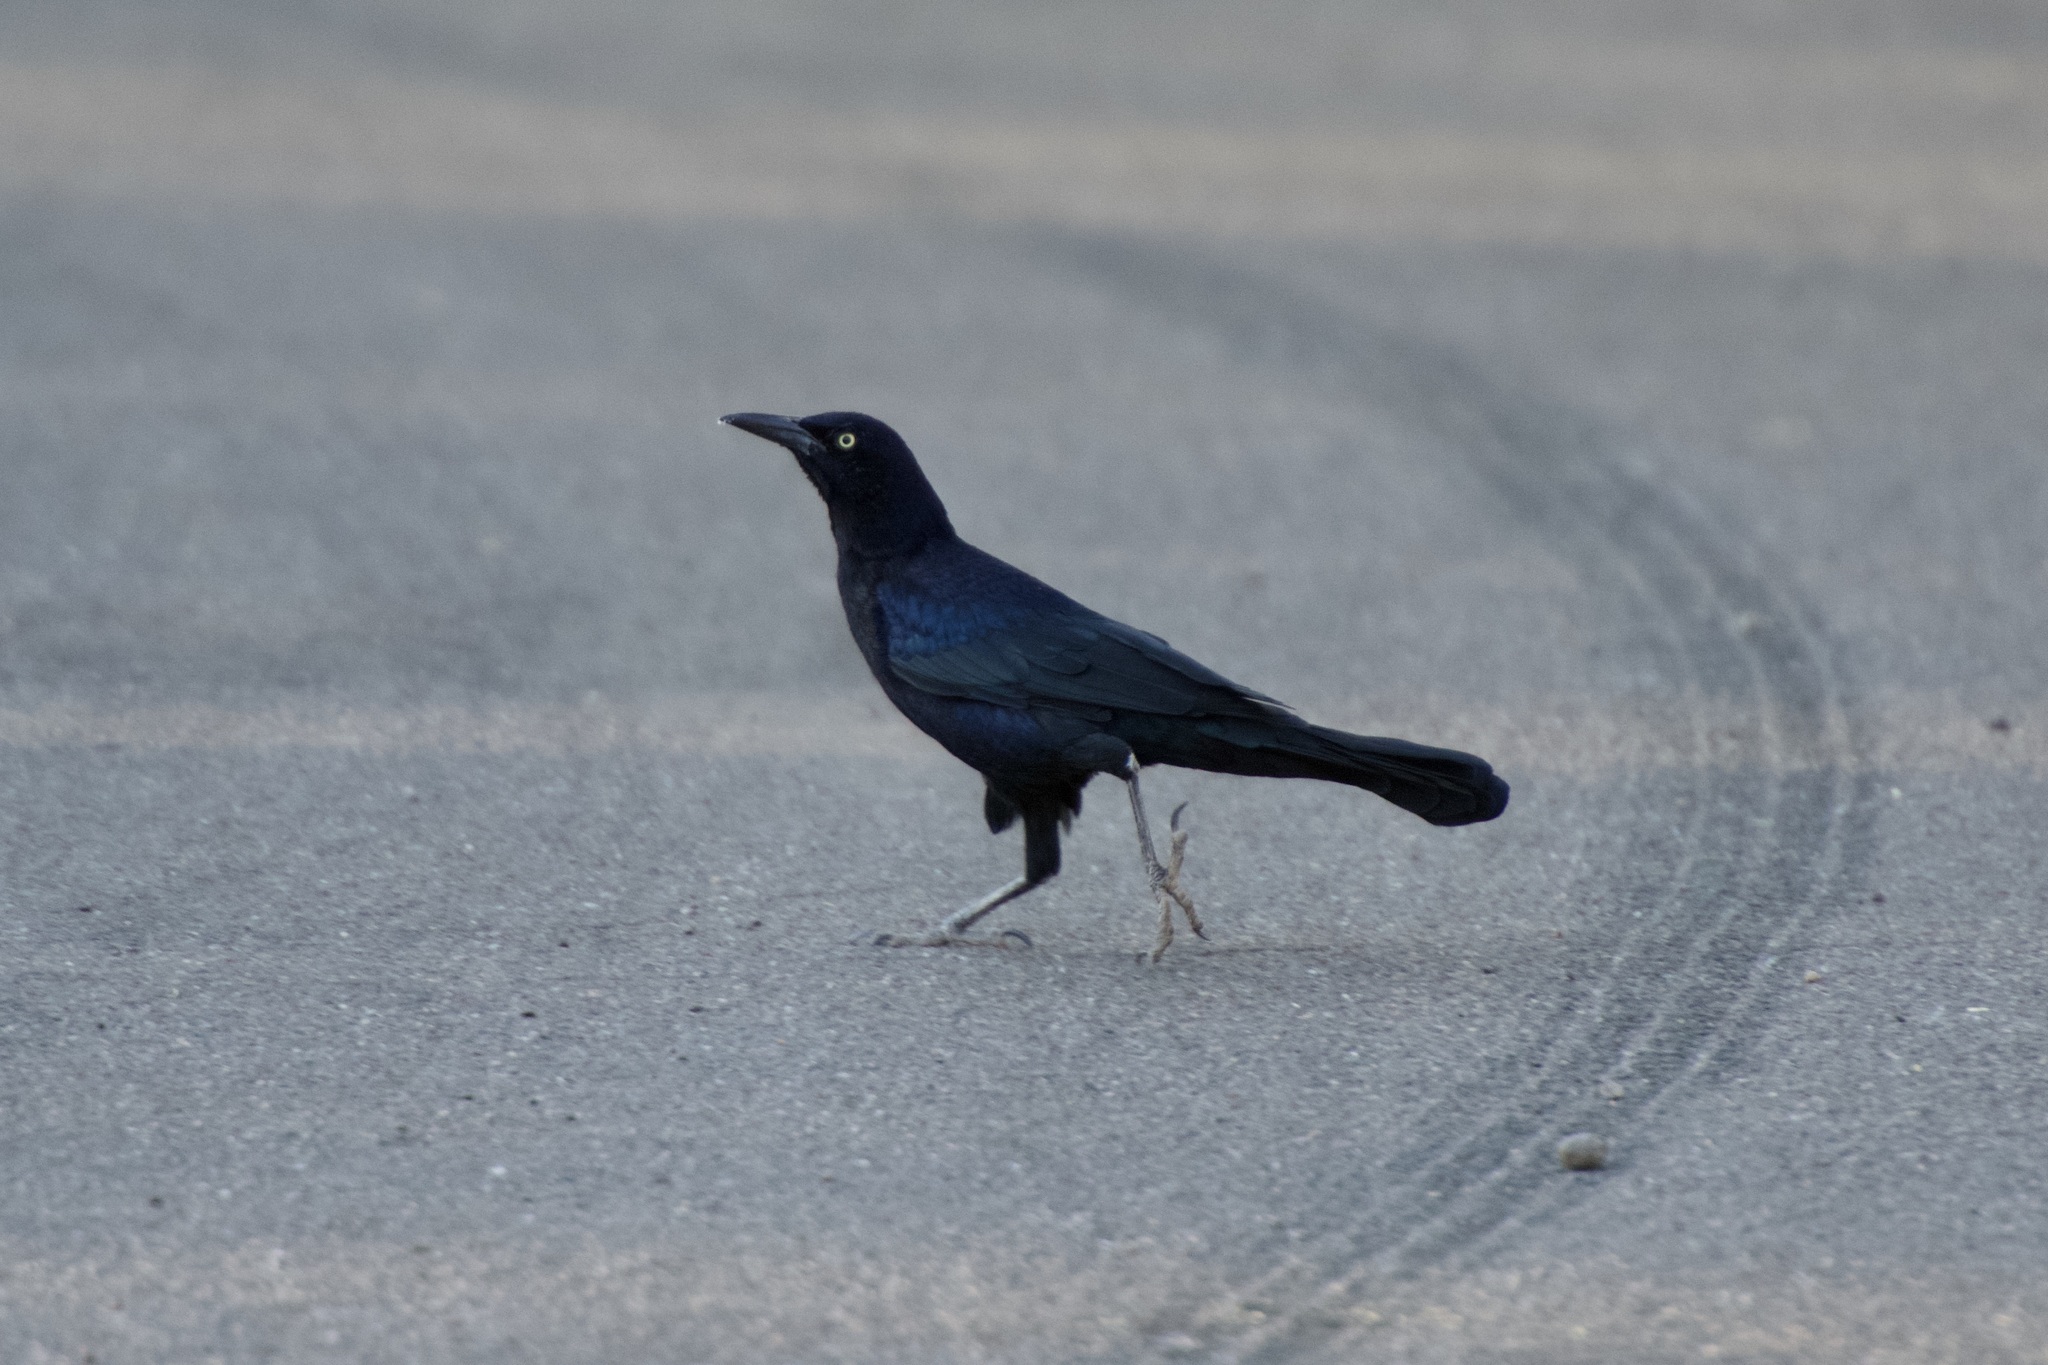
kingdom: Animalia
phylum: Chordata
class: Aves
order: Passeriformes
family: Icteridae
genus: Quiscalus
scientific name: Quiscalus mexicanus
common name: Great-tailed grackle
